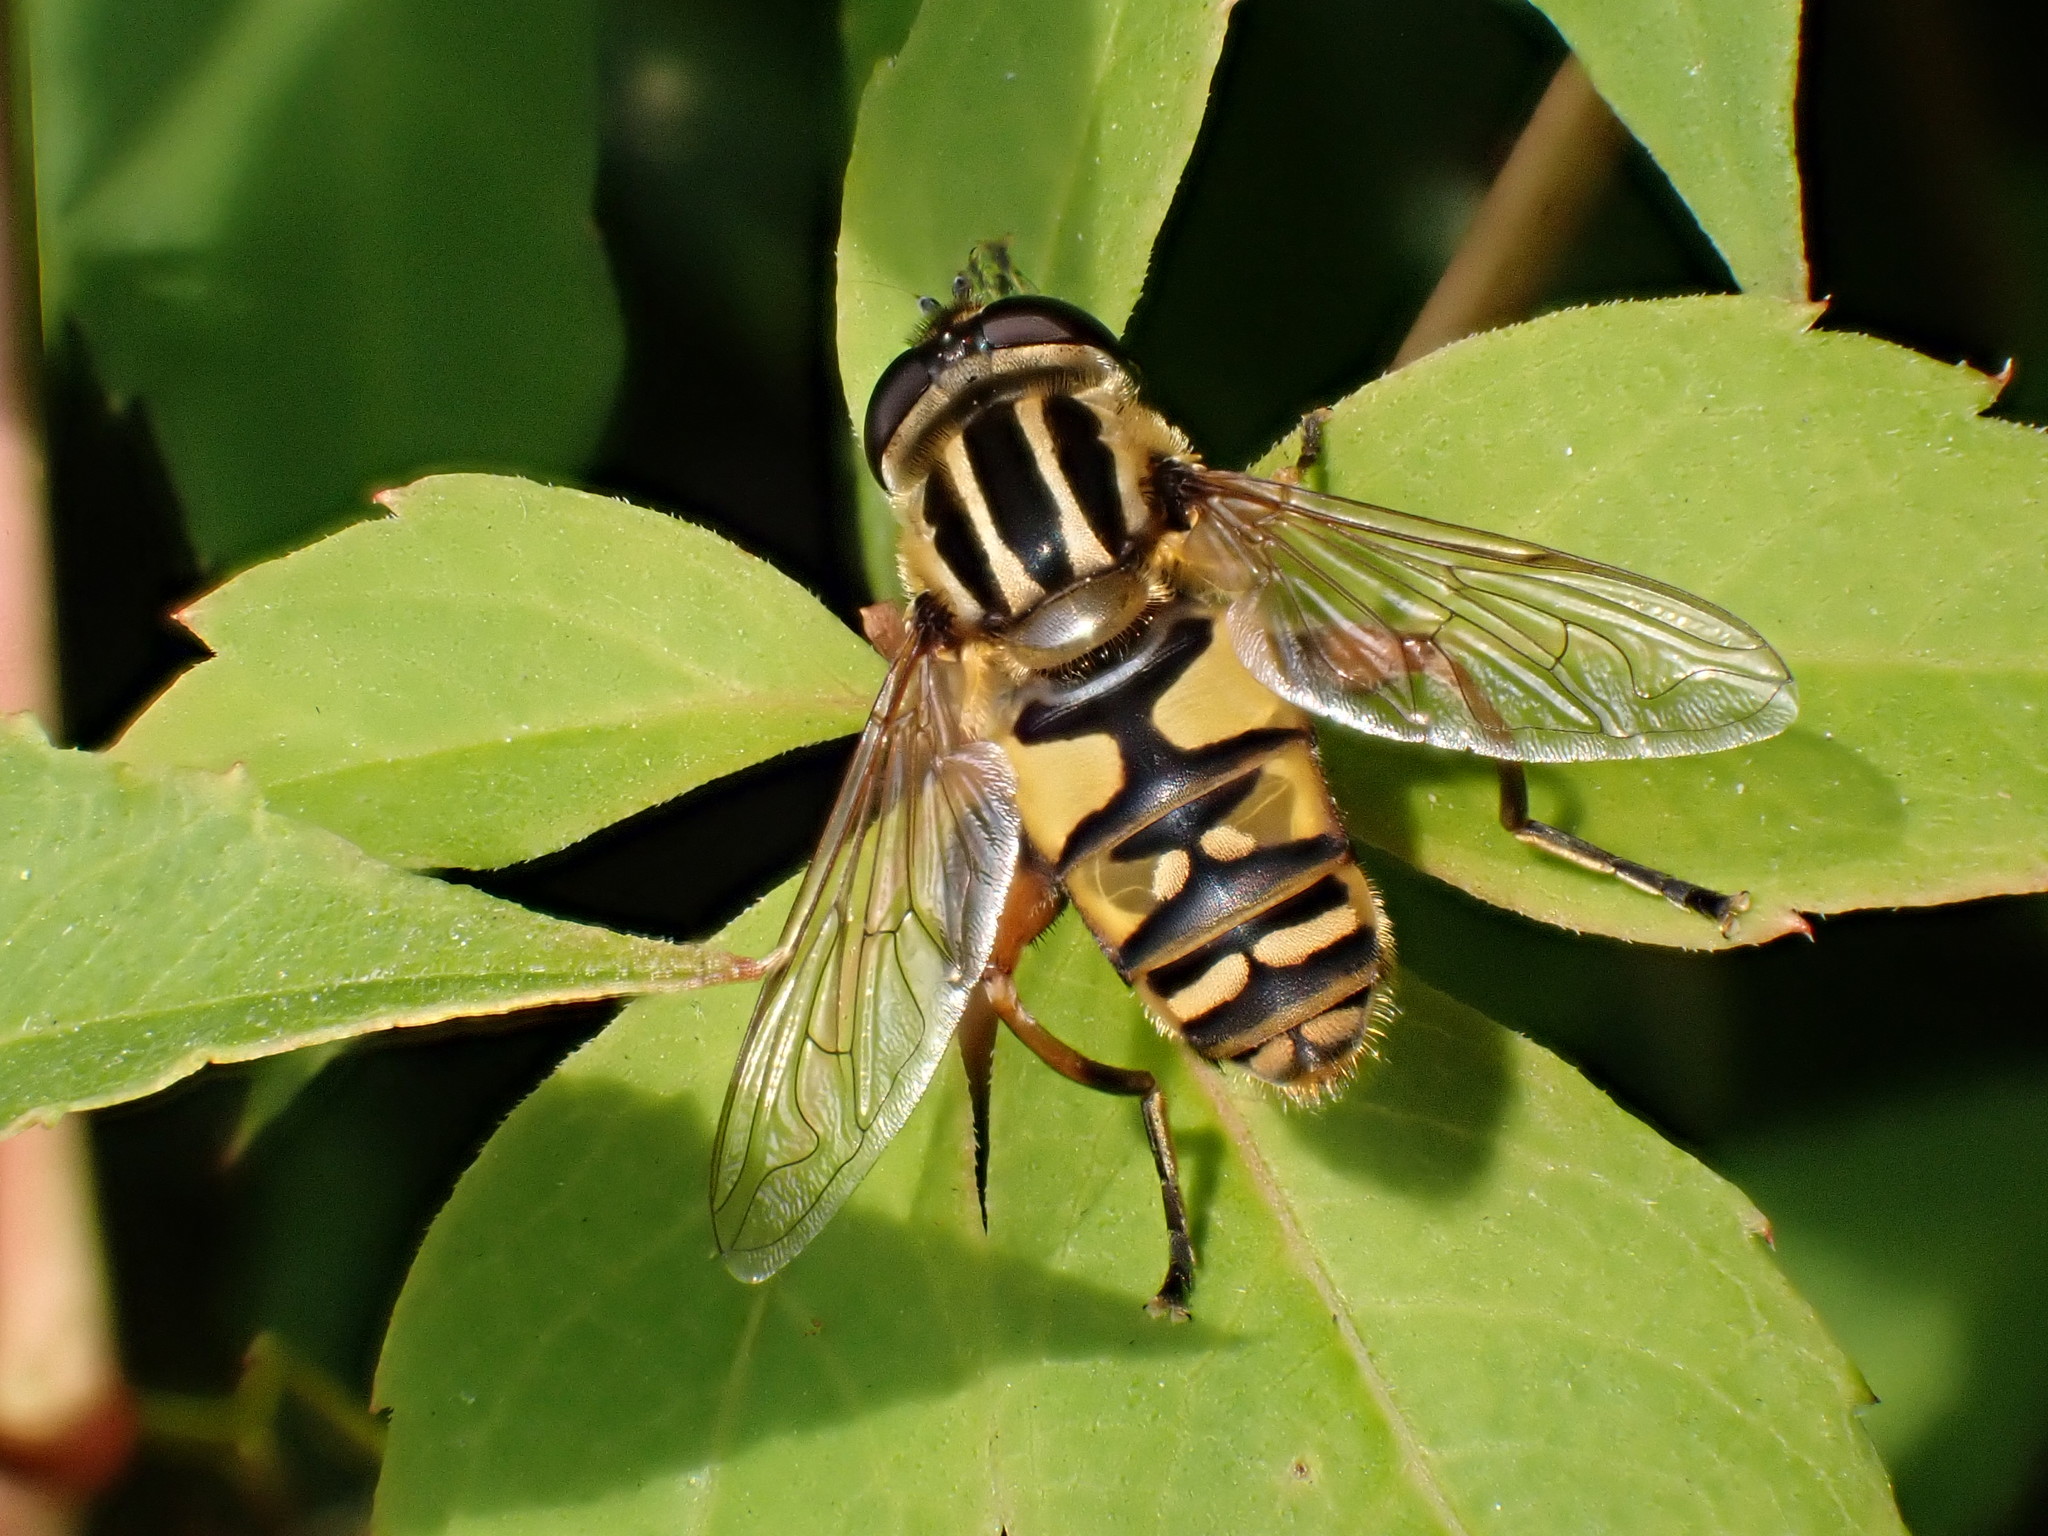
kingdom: Animalia
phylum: Arthropoda
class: Insecta
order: Diptera
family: Syrphidae
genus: Helophilus
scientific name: Helophilus pendulus
